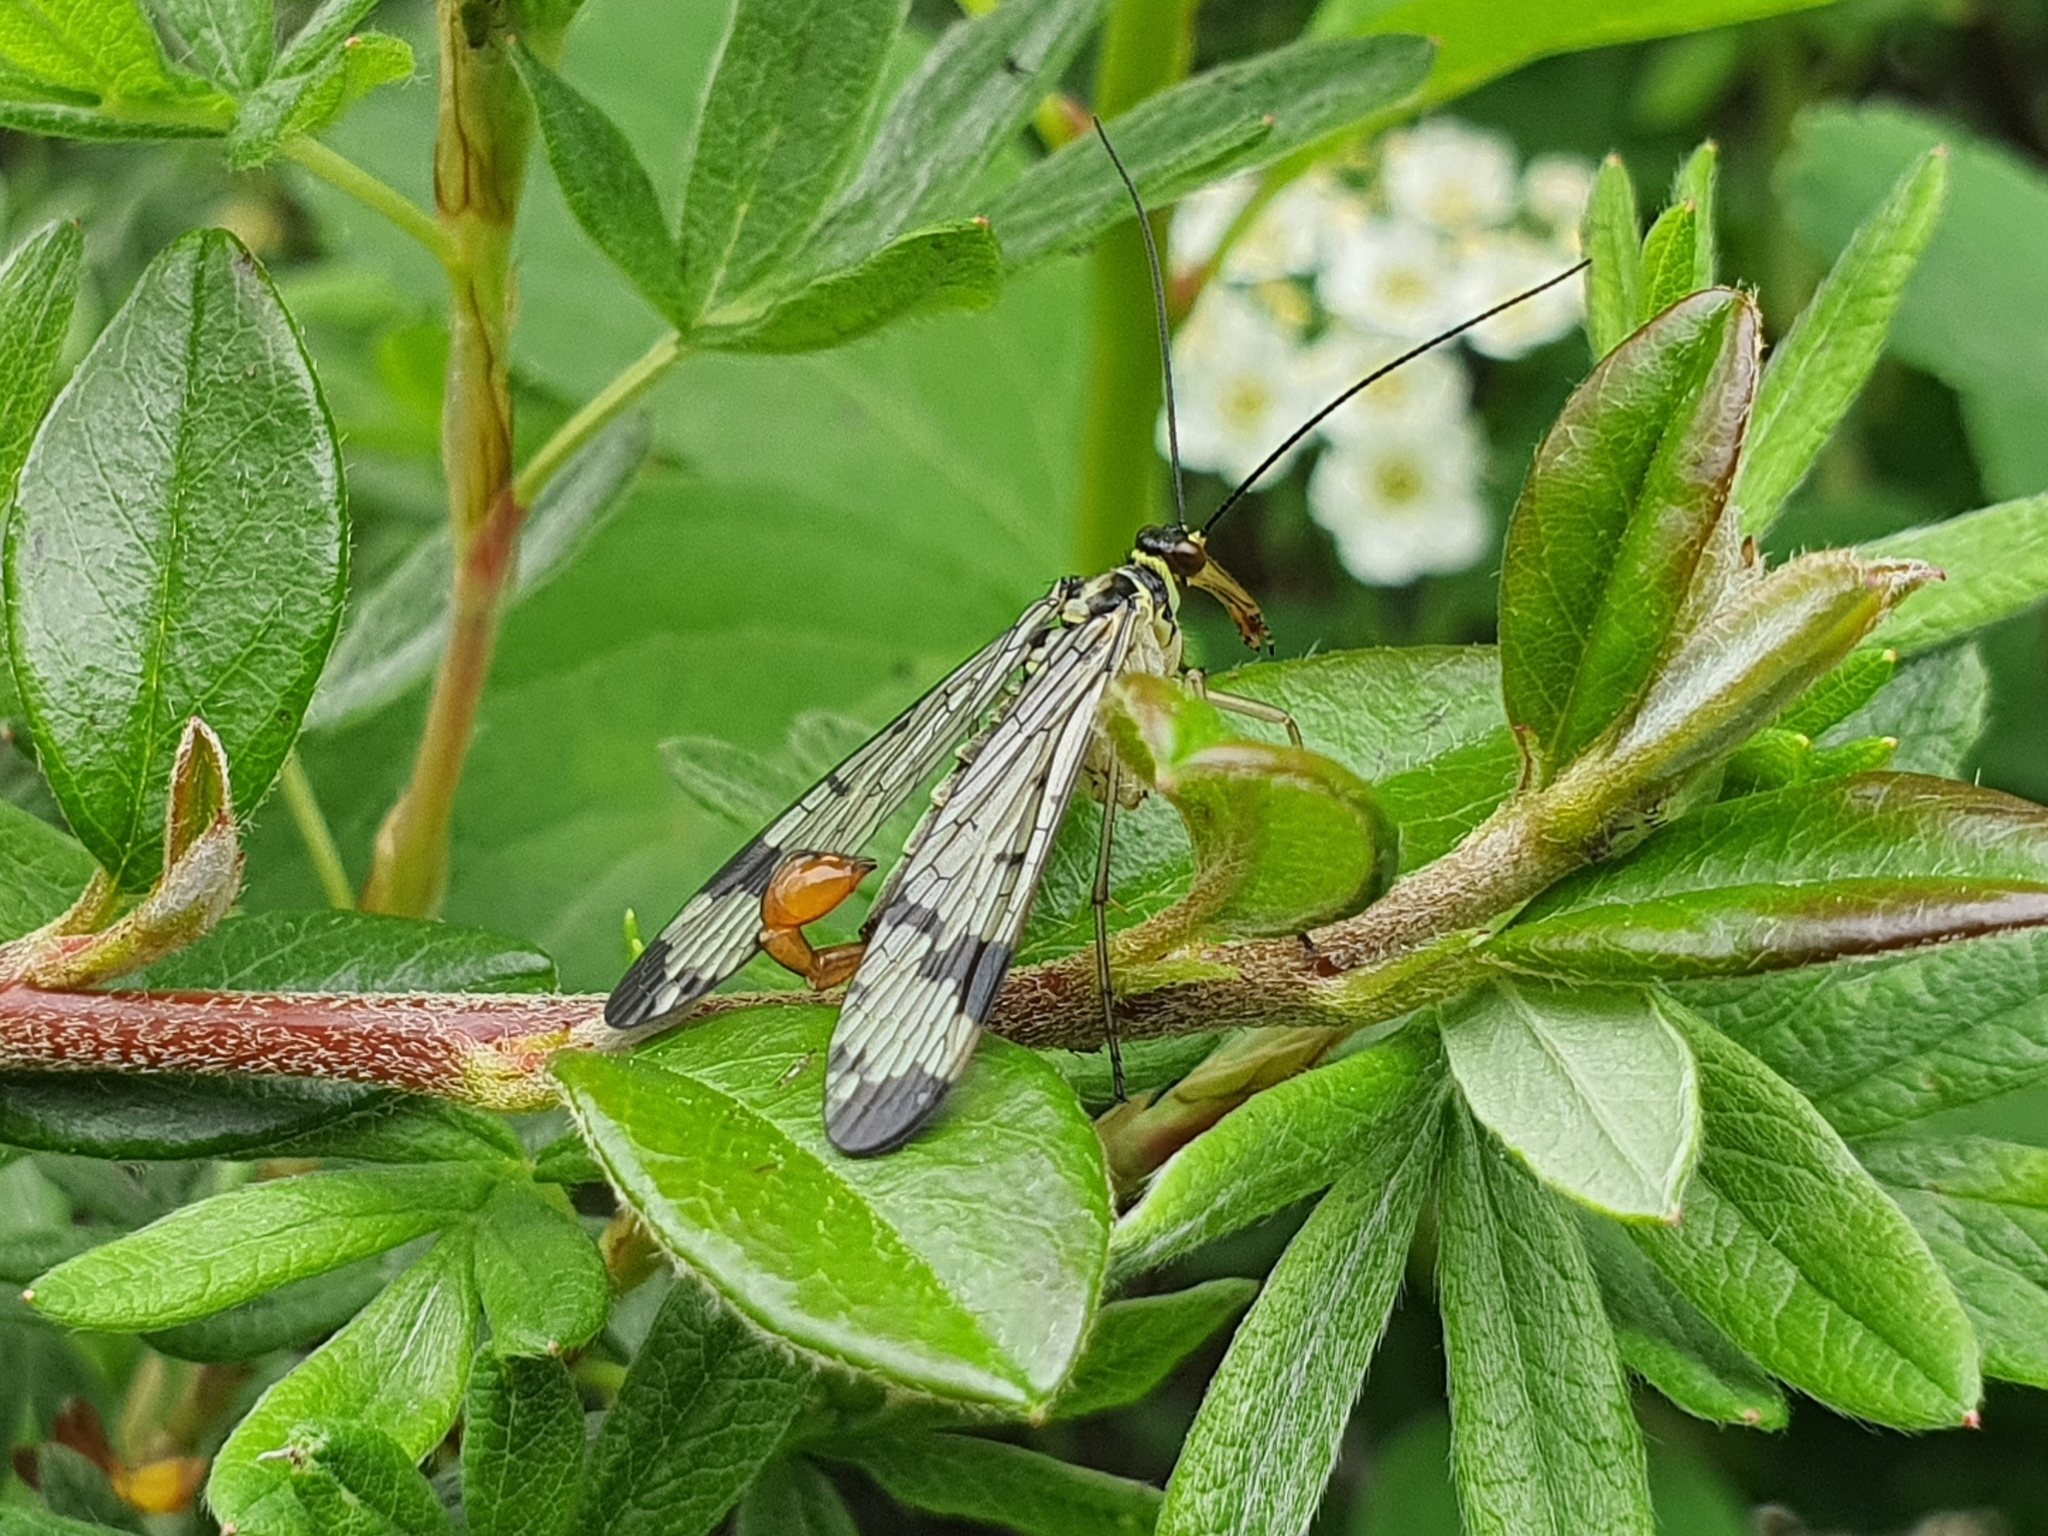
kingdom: Animalia
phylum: Arthropoda
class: Insecta
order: Mecoptera
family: Panorpidae
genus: Panorpa
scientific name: Panorpa communis
